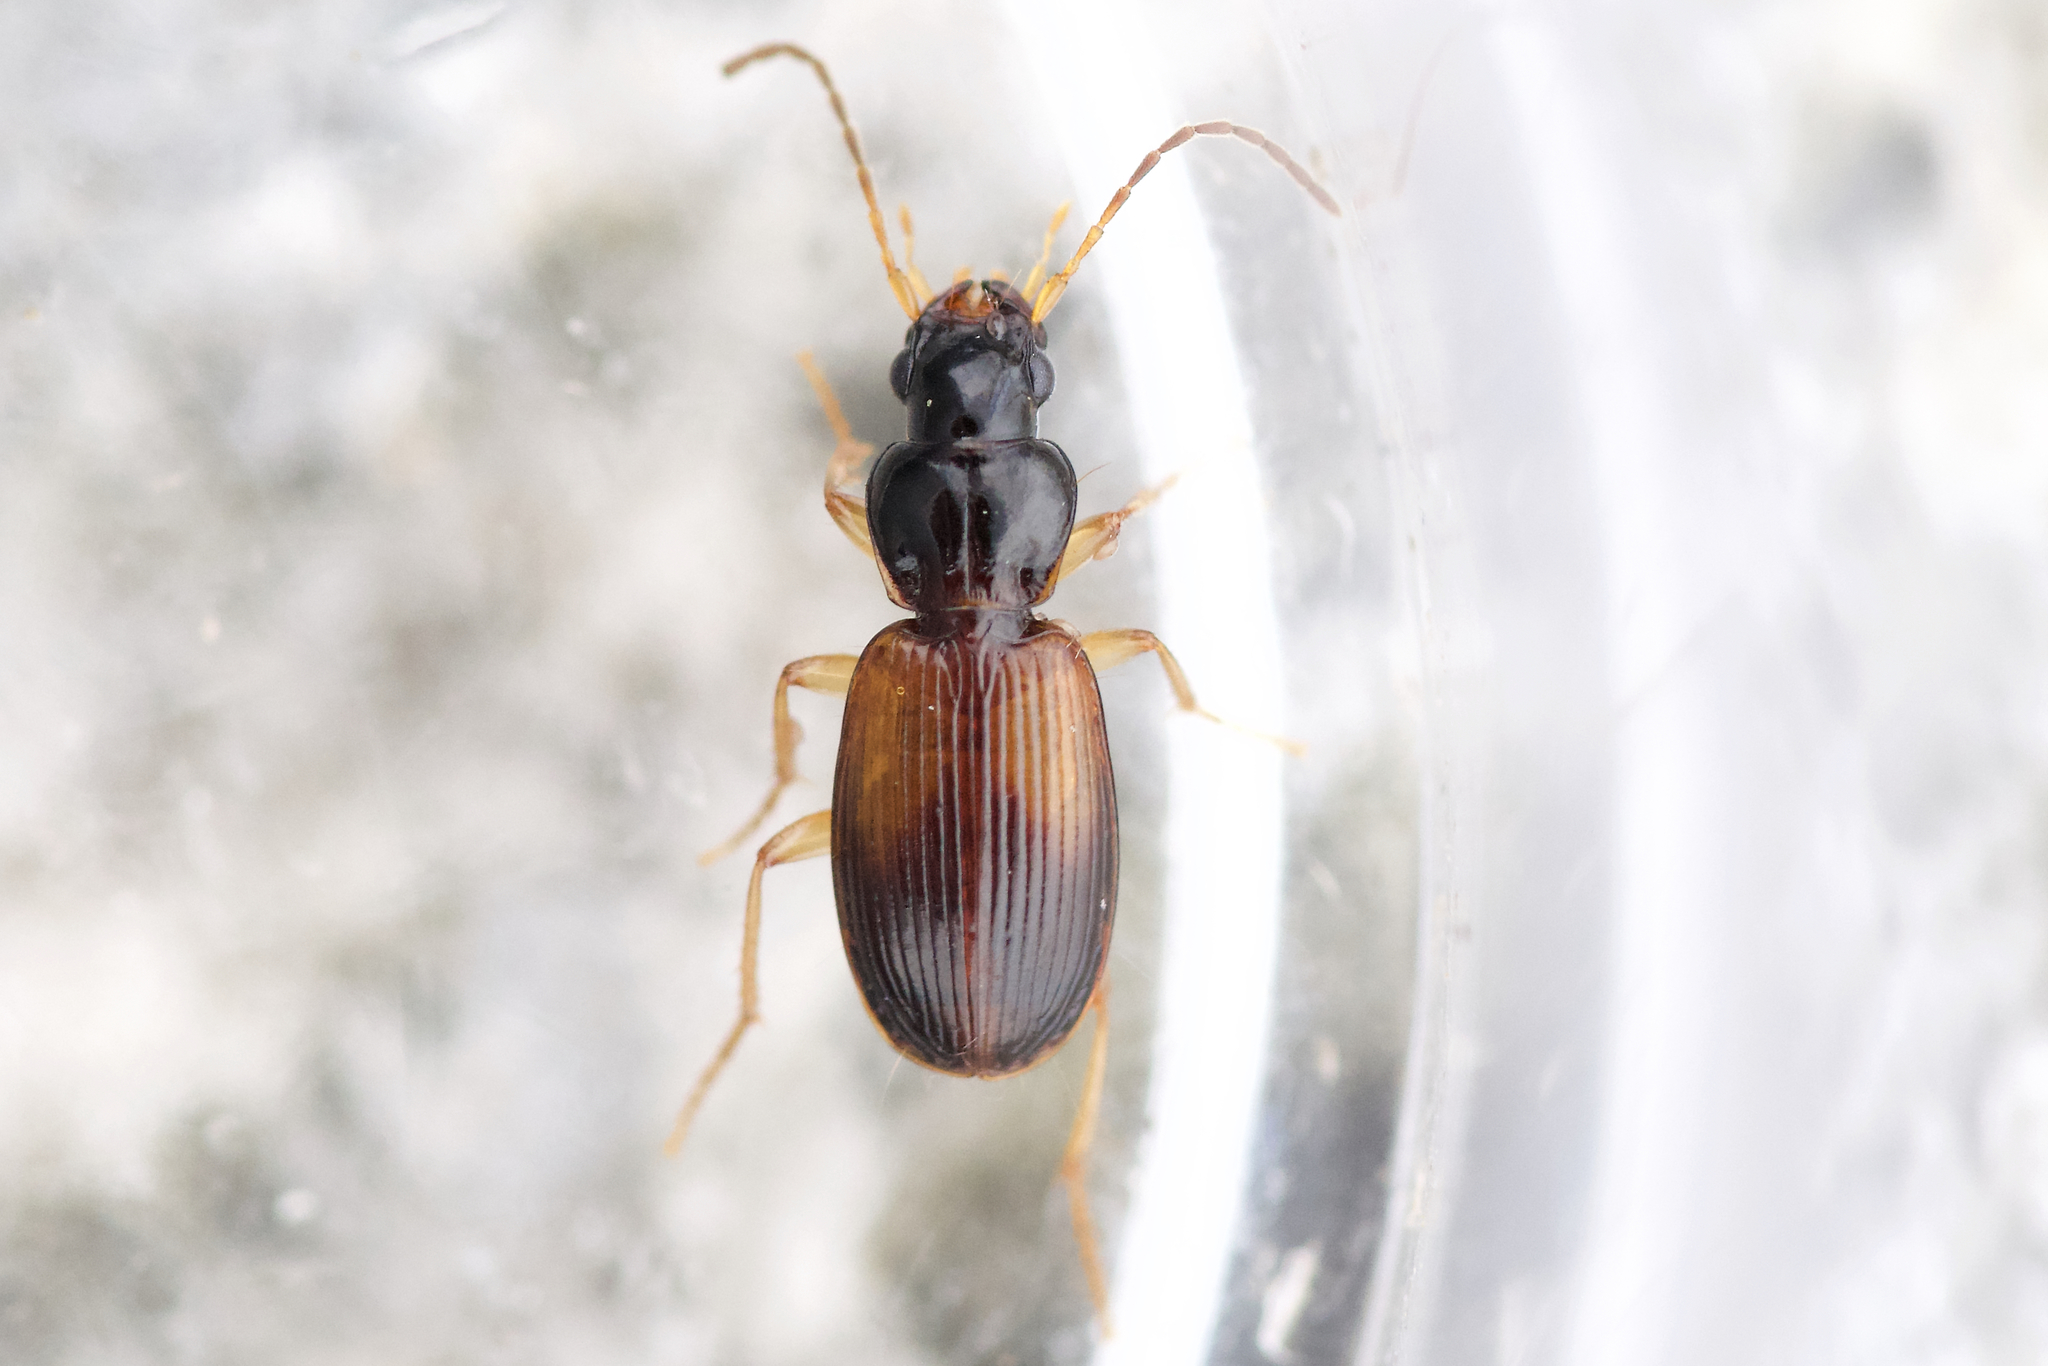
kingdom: Animalia
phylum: Arthropoda
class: Insecta
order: Coleoptera
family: Carabidae
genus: Badister
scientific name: Badister notatus
